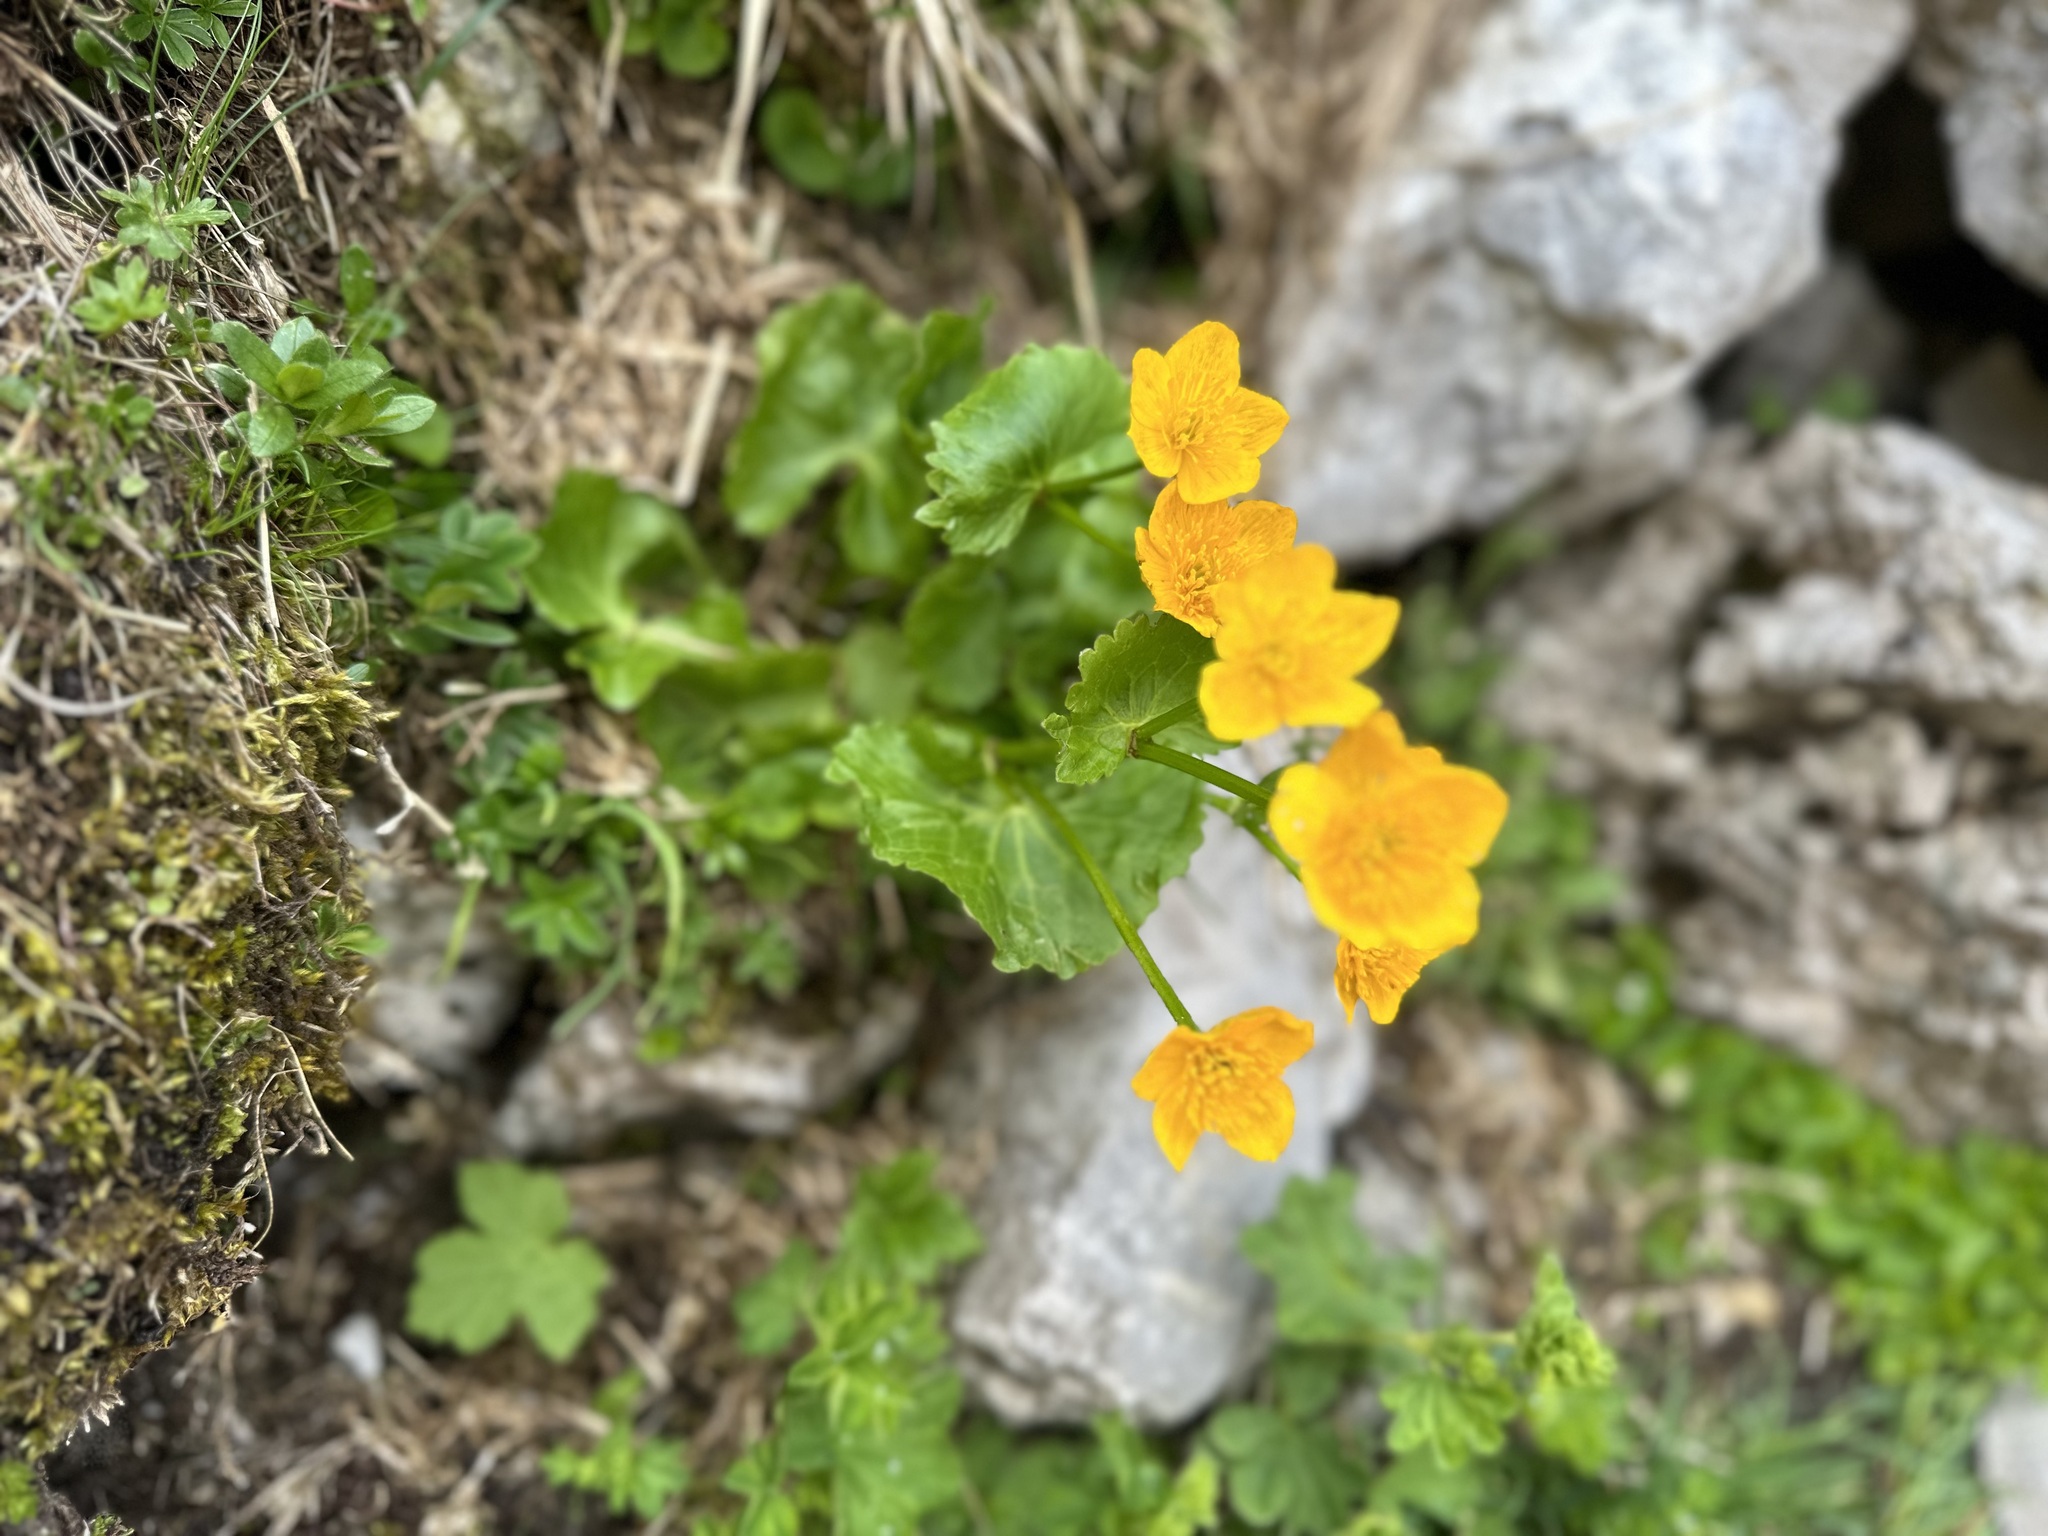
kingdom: Plantae
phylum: Tracheophyta
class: Magnoliopsida
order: Ranunculales
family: Ranunculaceae
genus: Caltha
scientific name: Caltha palustris
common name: Marsh marigold
